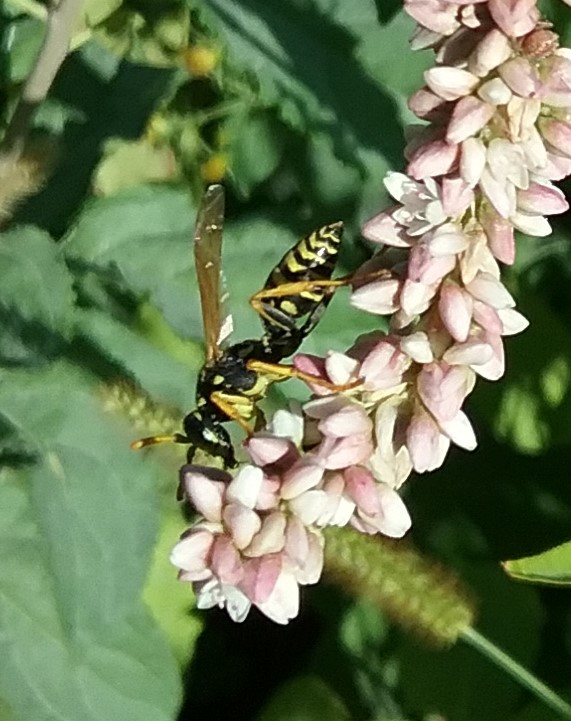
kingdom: Animalia
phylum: Arthropoda
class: Insecta
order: Hymenoptera
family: Eumenidae
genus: Polistes
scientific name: Polistes dominula
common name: Paper wasp
